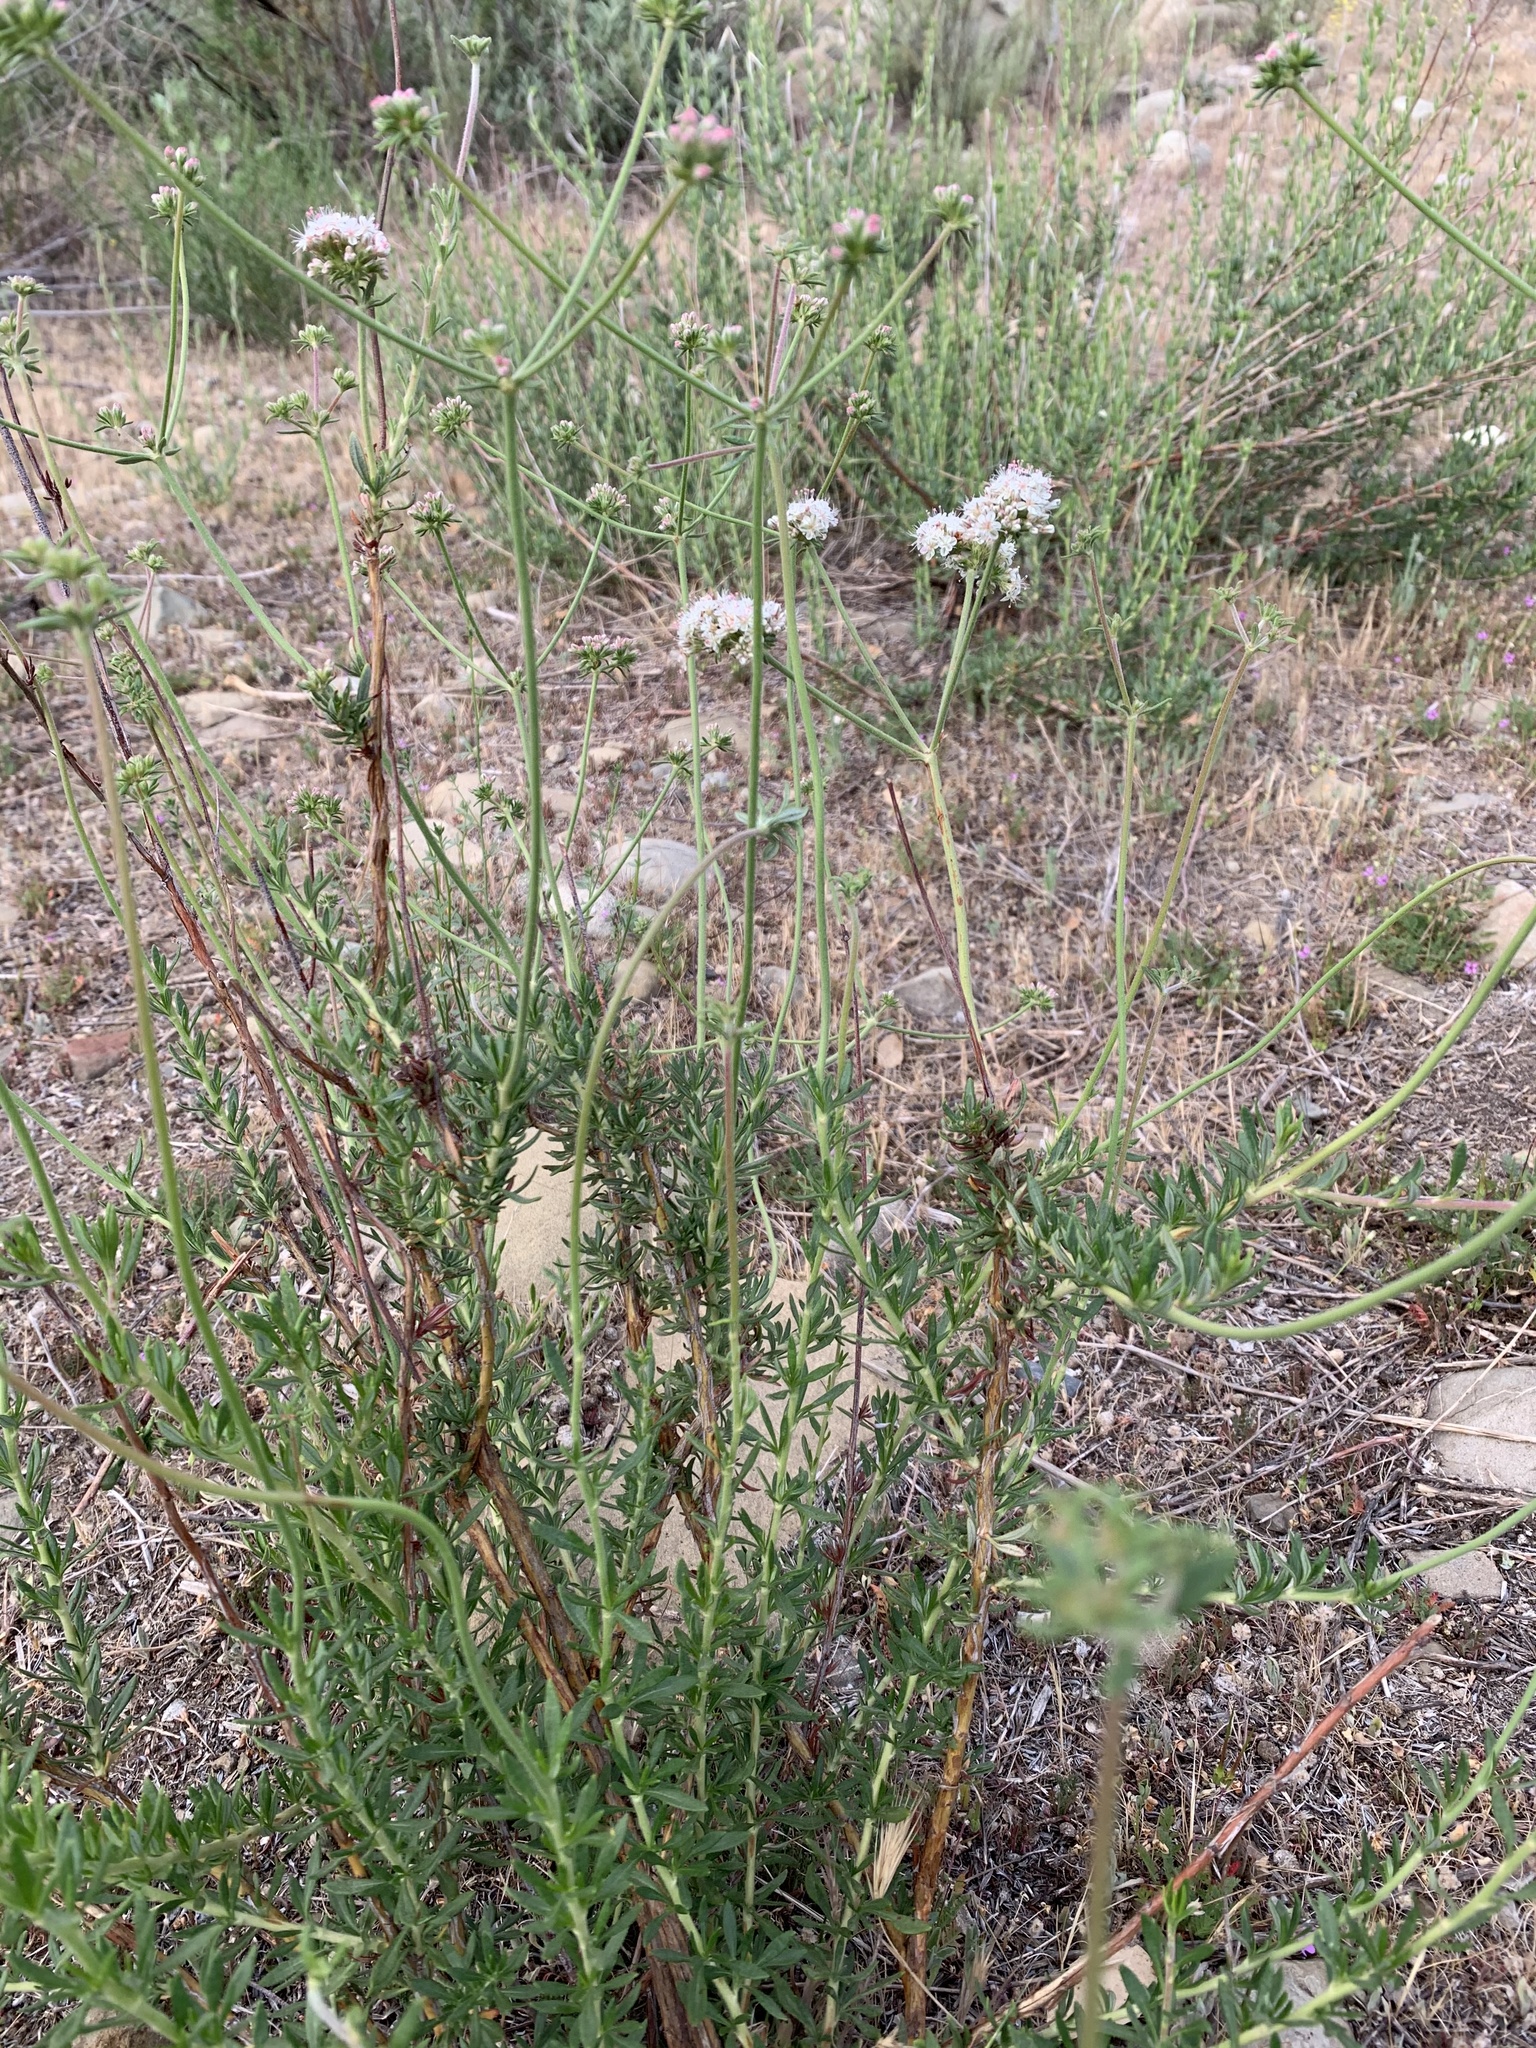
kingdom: Plantae
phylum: Tracheophyta
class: Magnoliopsida
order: Caryophyllales
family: Polygonaceae
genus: Eriogonum
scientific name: Eriogonum fasciculatum
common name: California wild buckwheat
